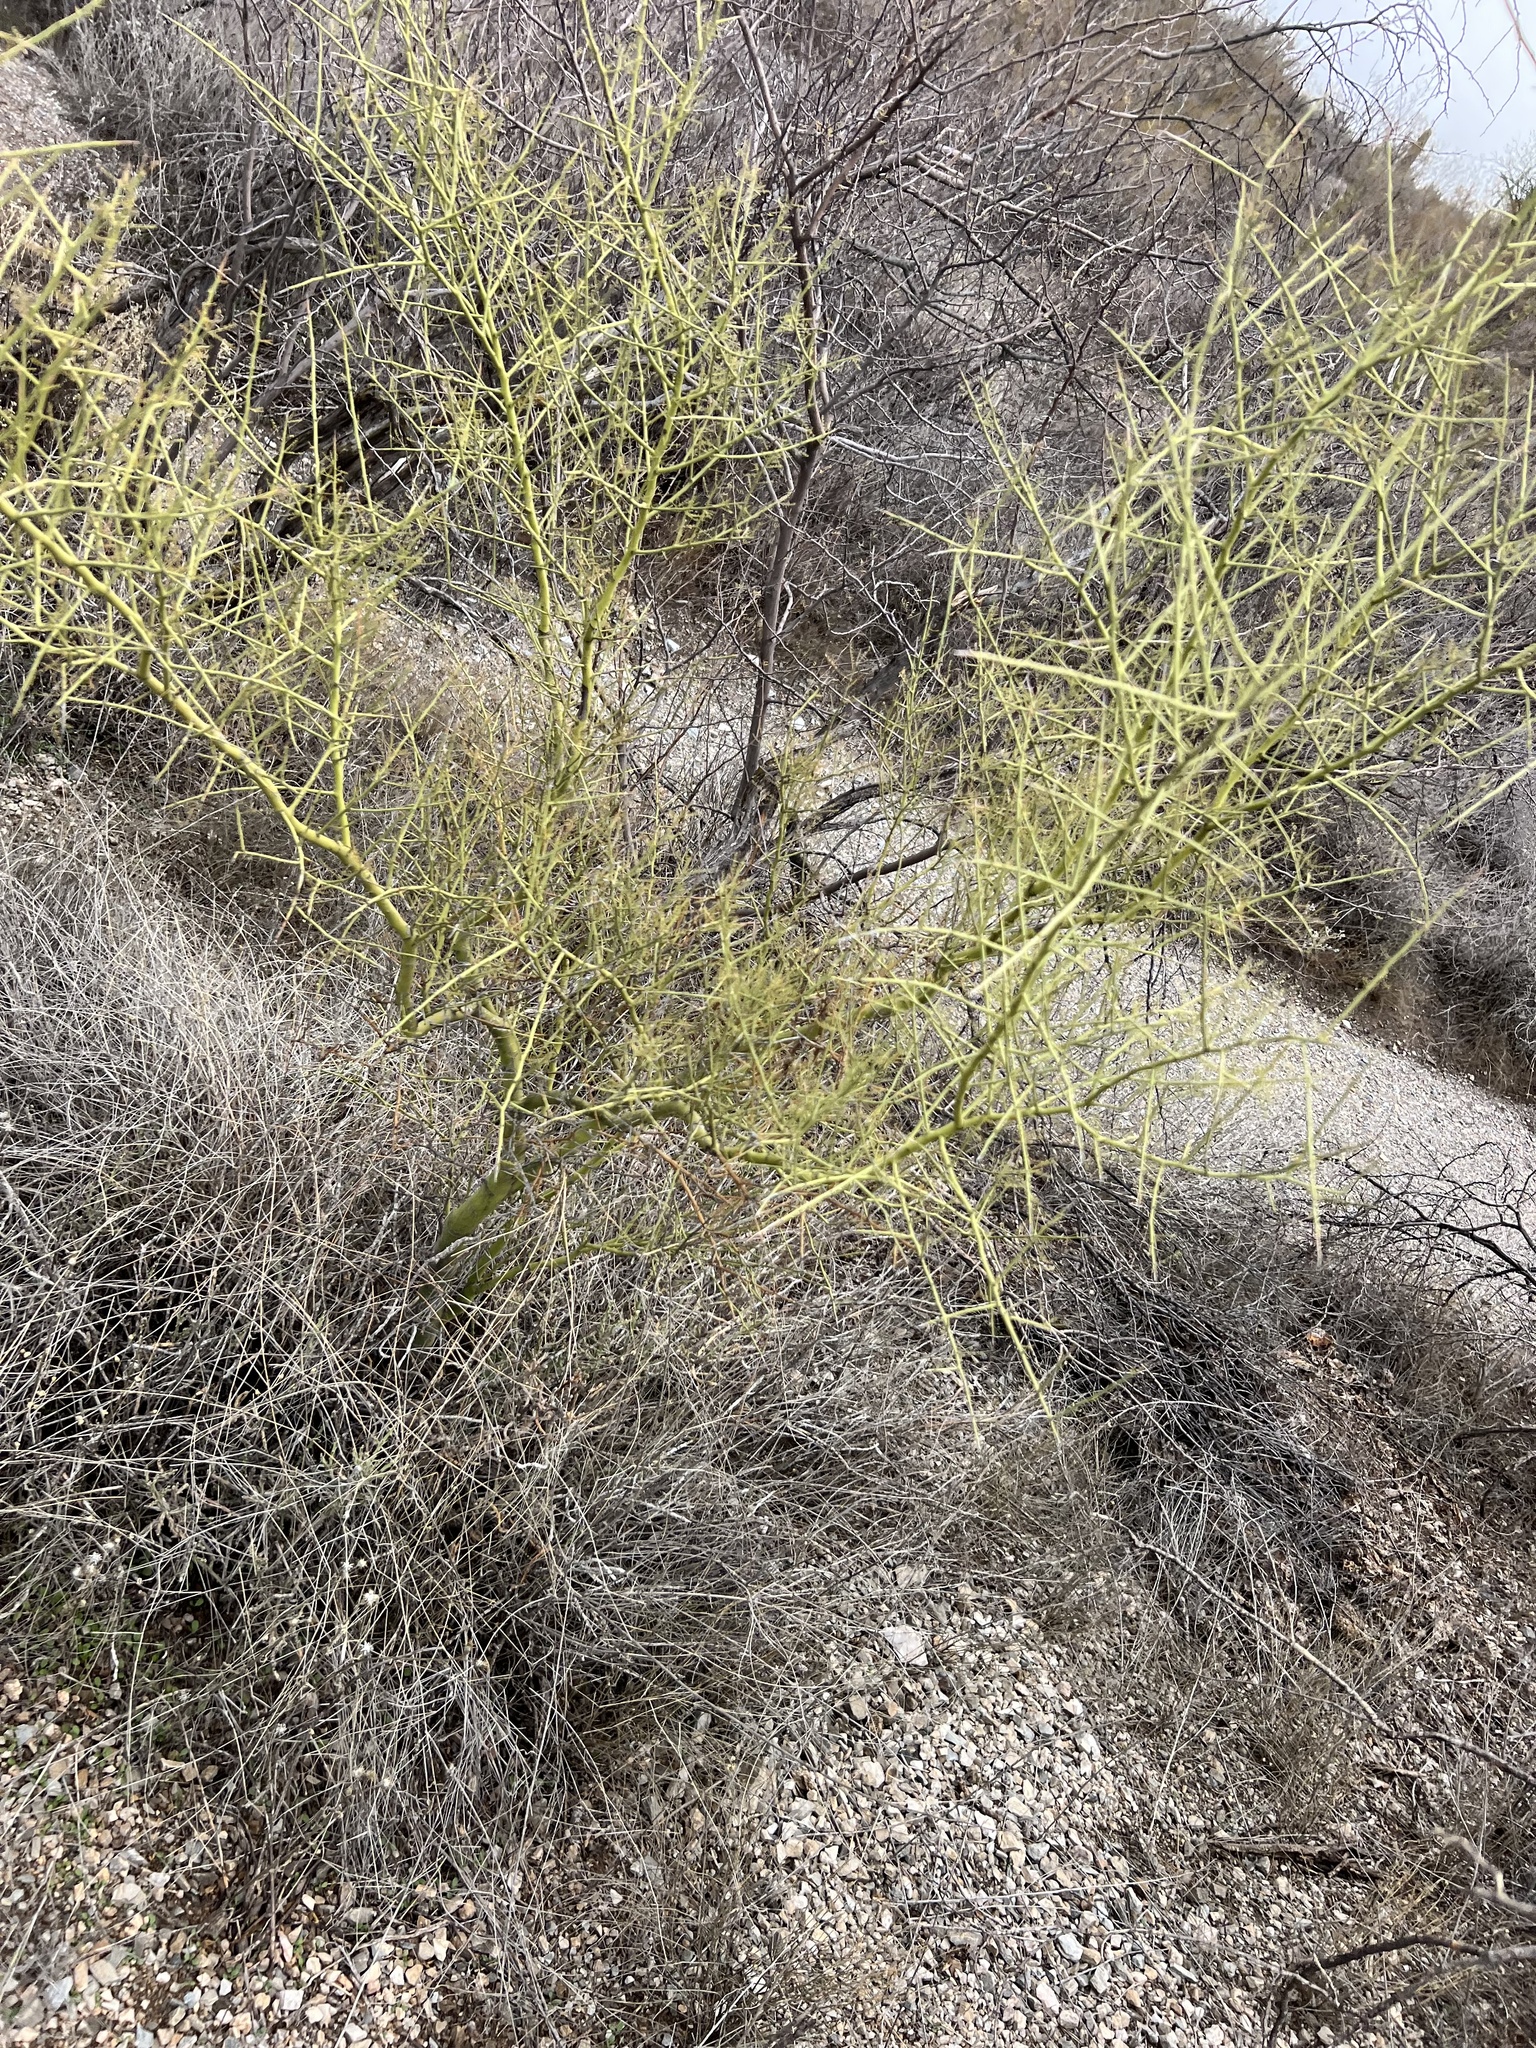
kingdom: Plantae
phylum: Tracheophyta
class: Magnoliopsida
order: Fabales
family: Fabaceae
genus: Parkinsonia
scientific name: Parkinsonia microphylla
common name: Yellow paloverde
